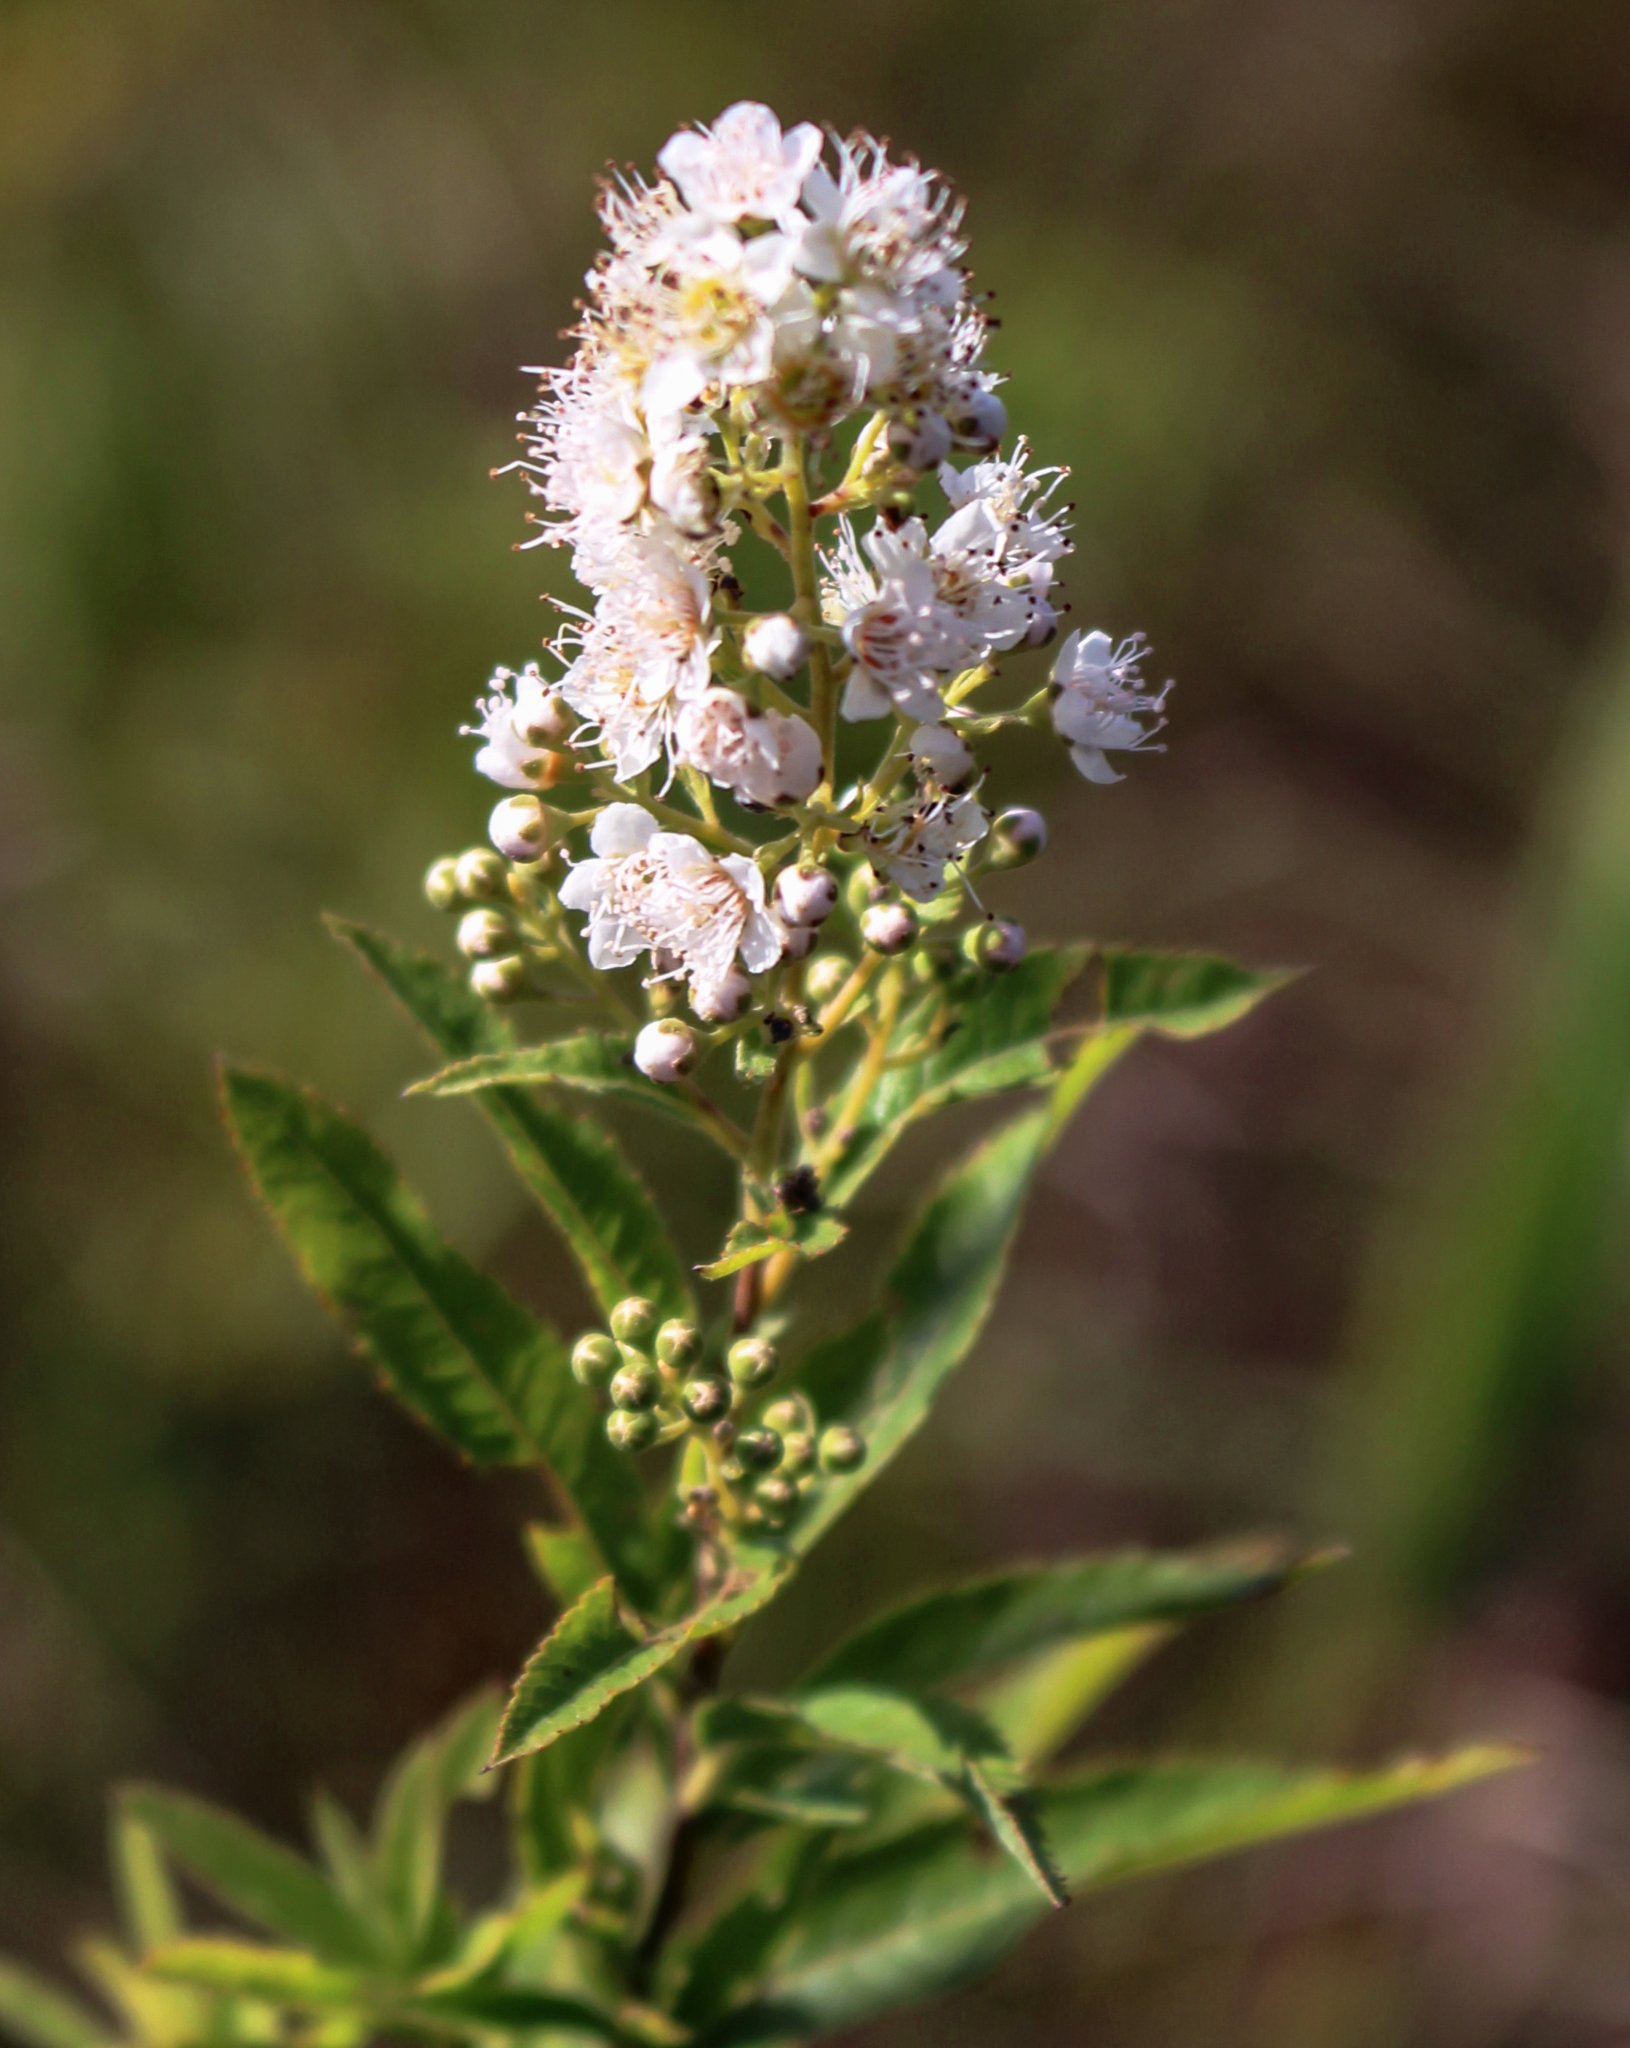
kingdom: Plantae
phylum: Tracheophyta
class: Magnoliopsida
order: Rosales
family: Rosaceae
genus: Spiraea
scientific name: Spiraea alba
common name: Pale bridewort
